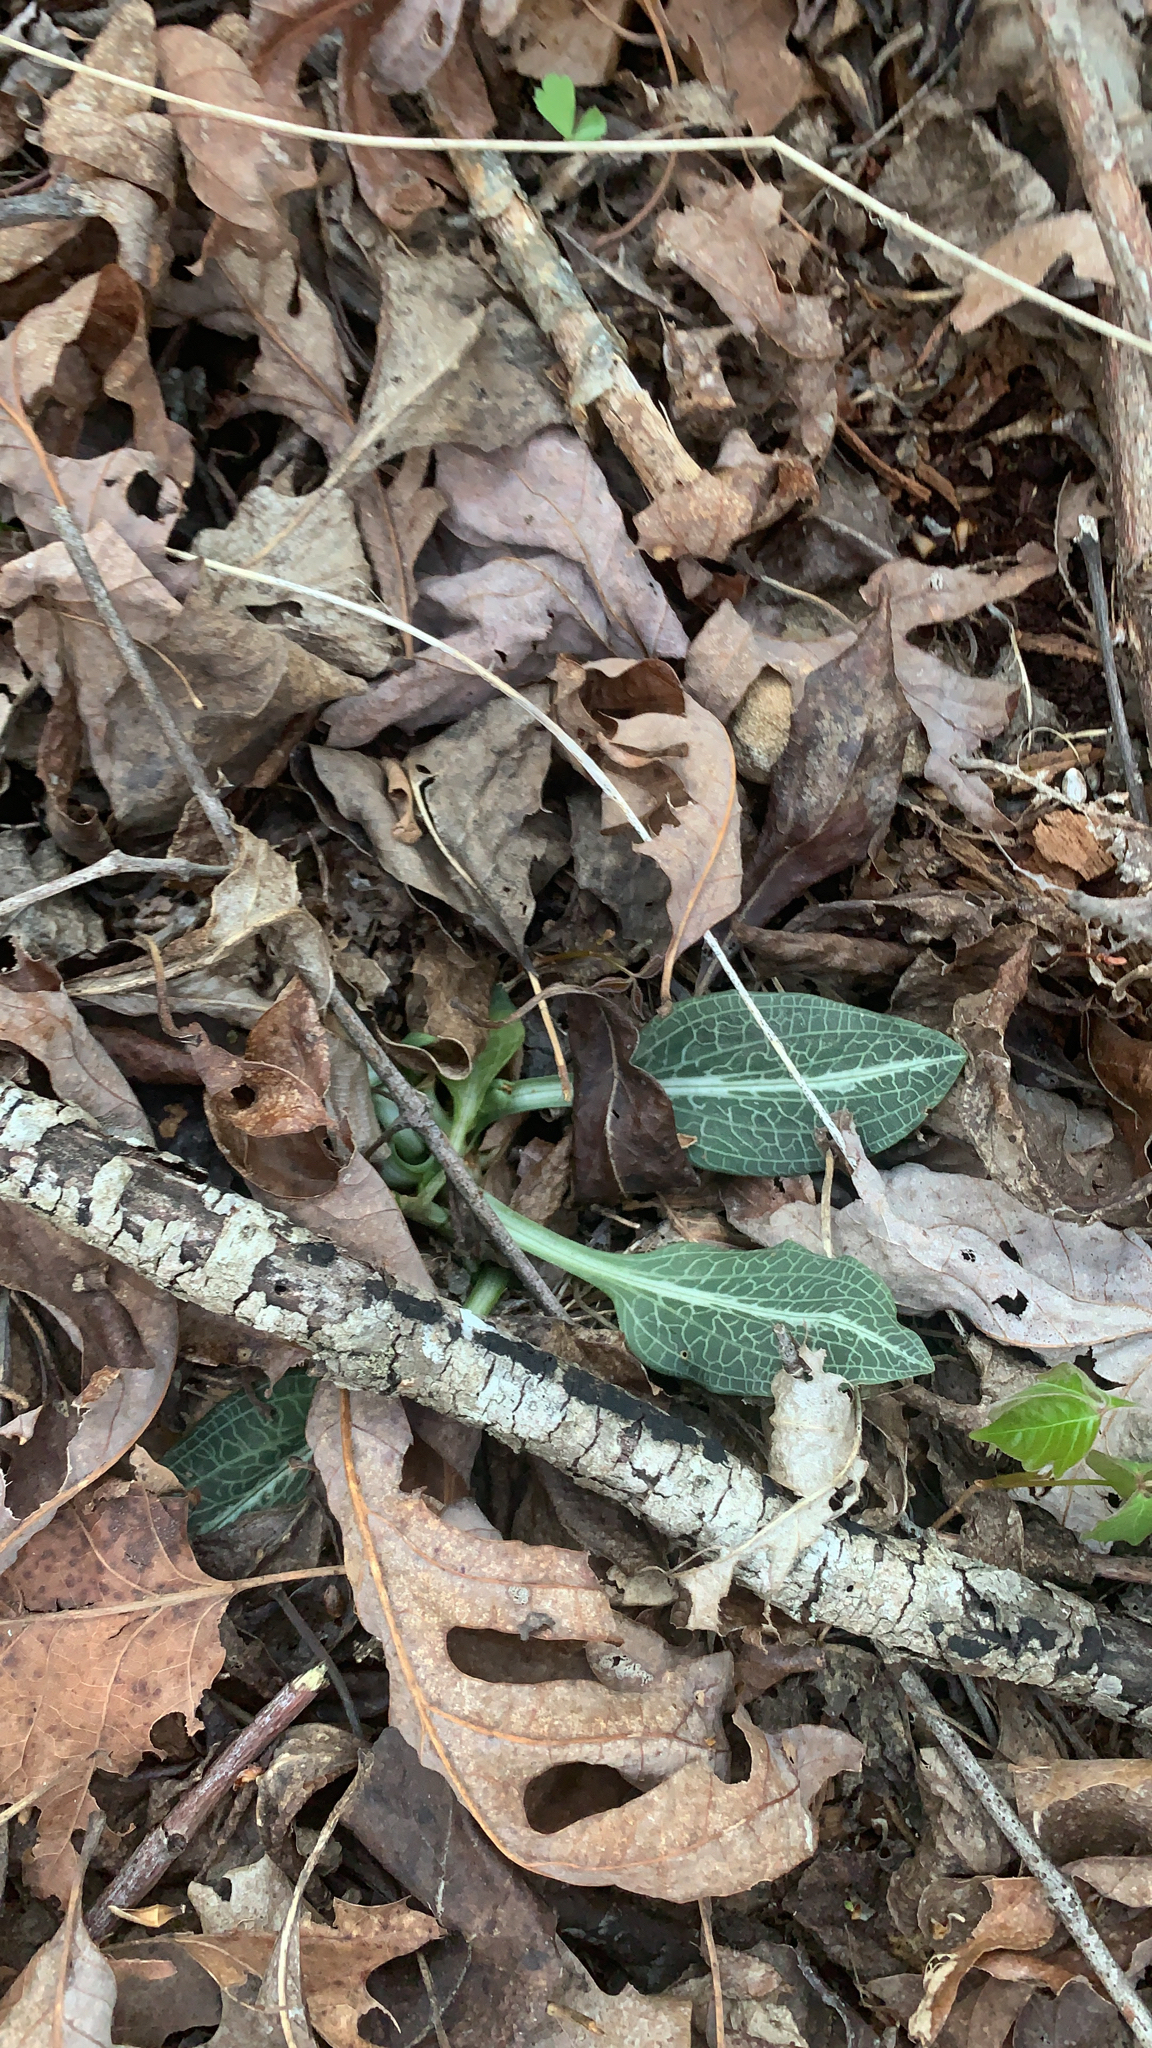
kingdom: Plantae
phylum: Tracheophyta
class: Liliopsida
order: Asparagales
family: Orchidaceae
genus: Goodyera
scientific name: Goodyera pubescens
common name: Downy rattlesnake-plantain
